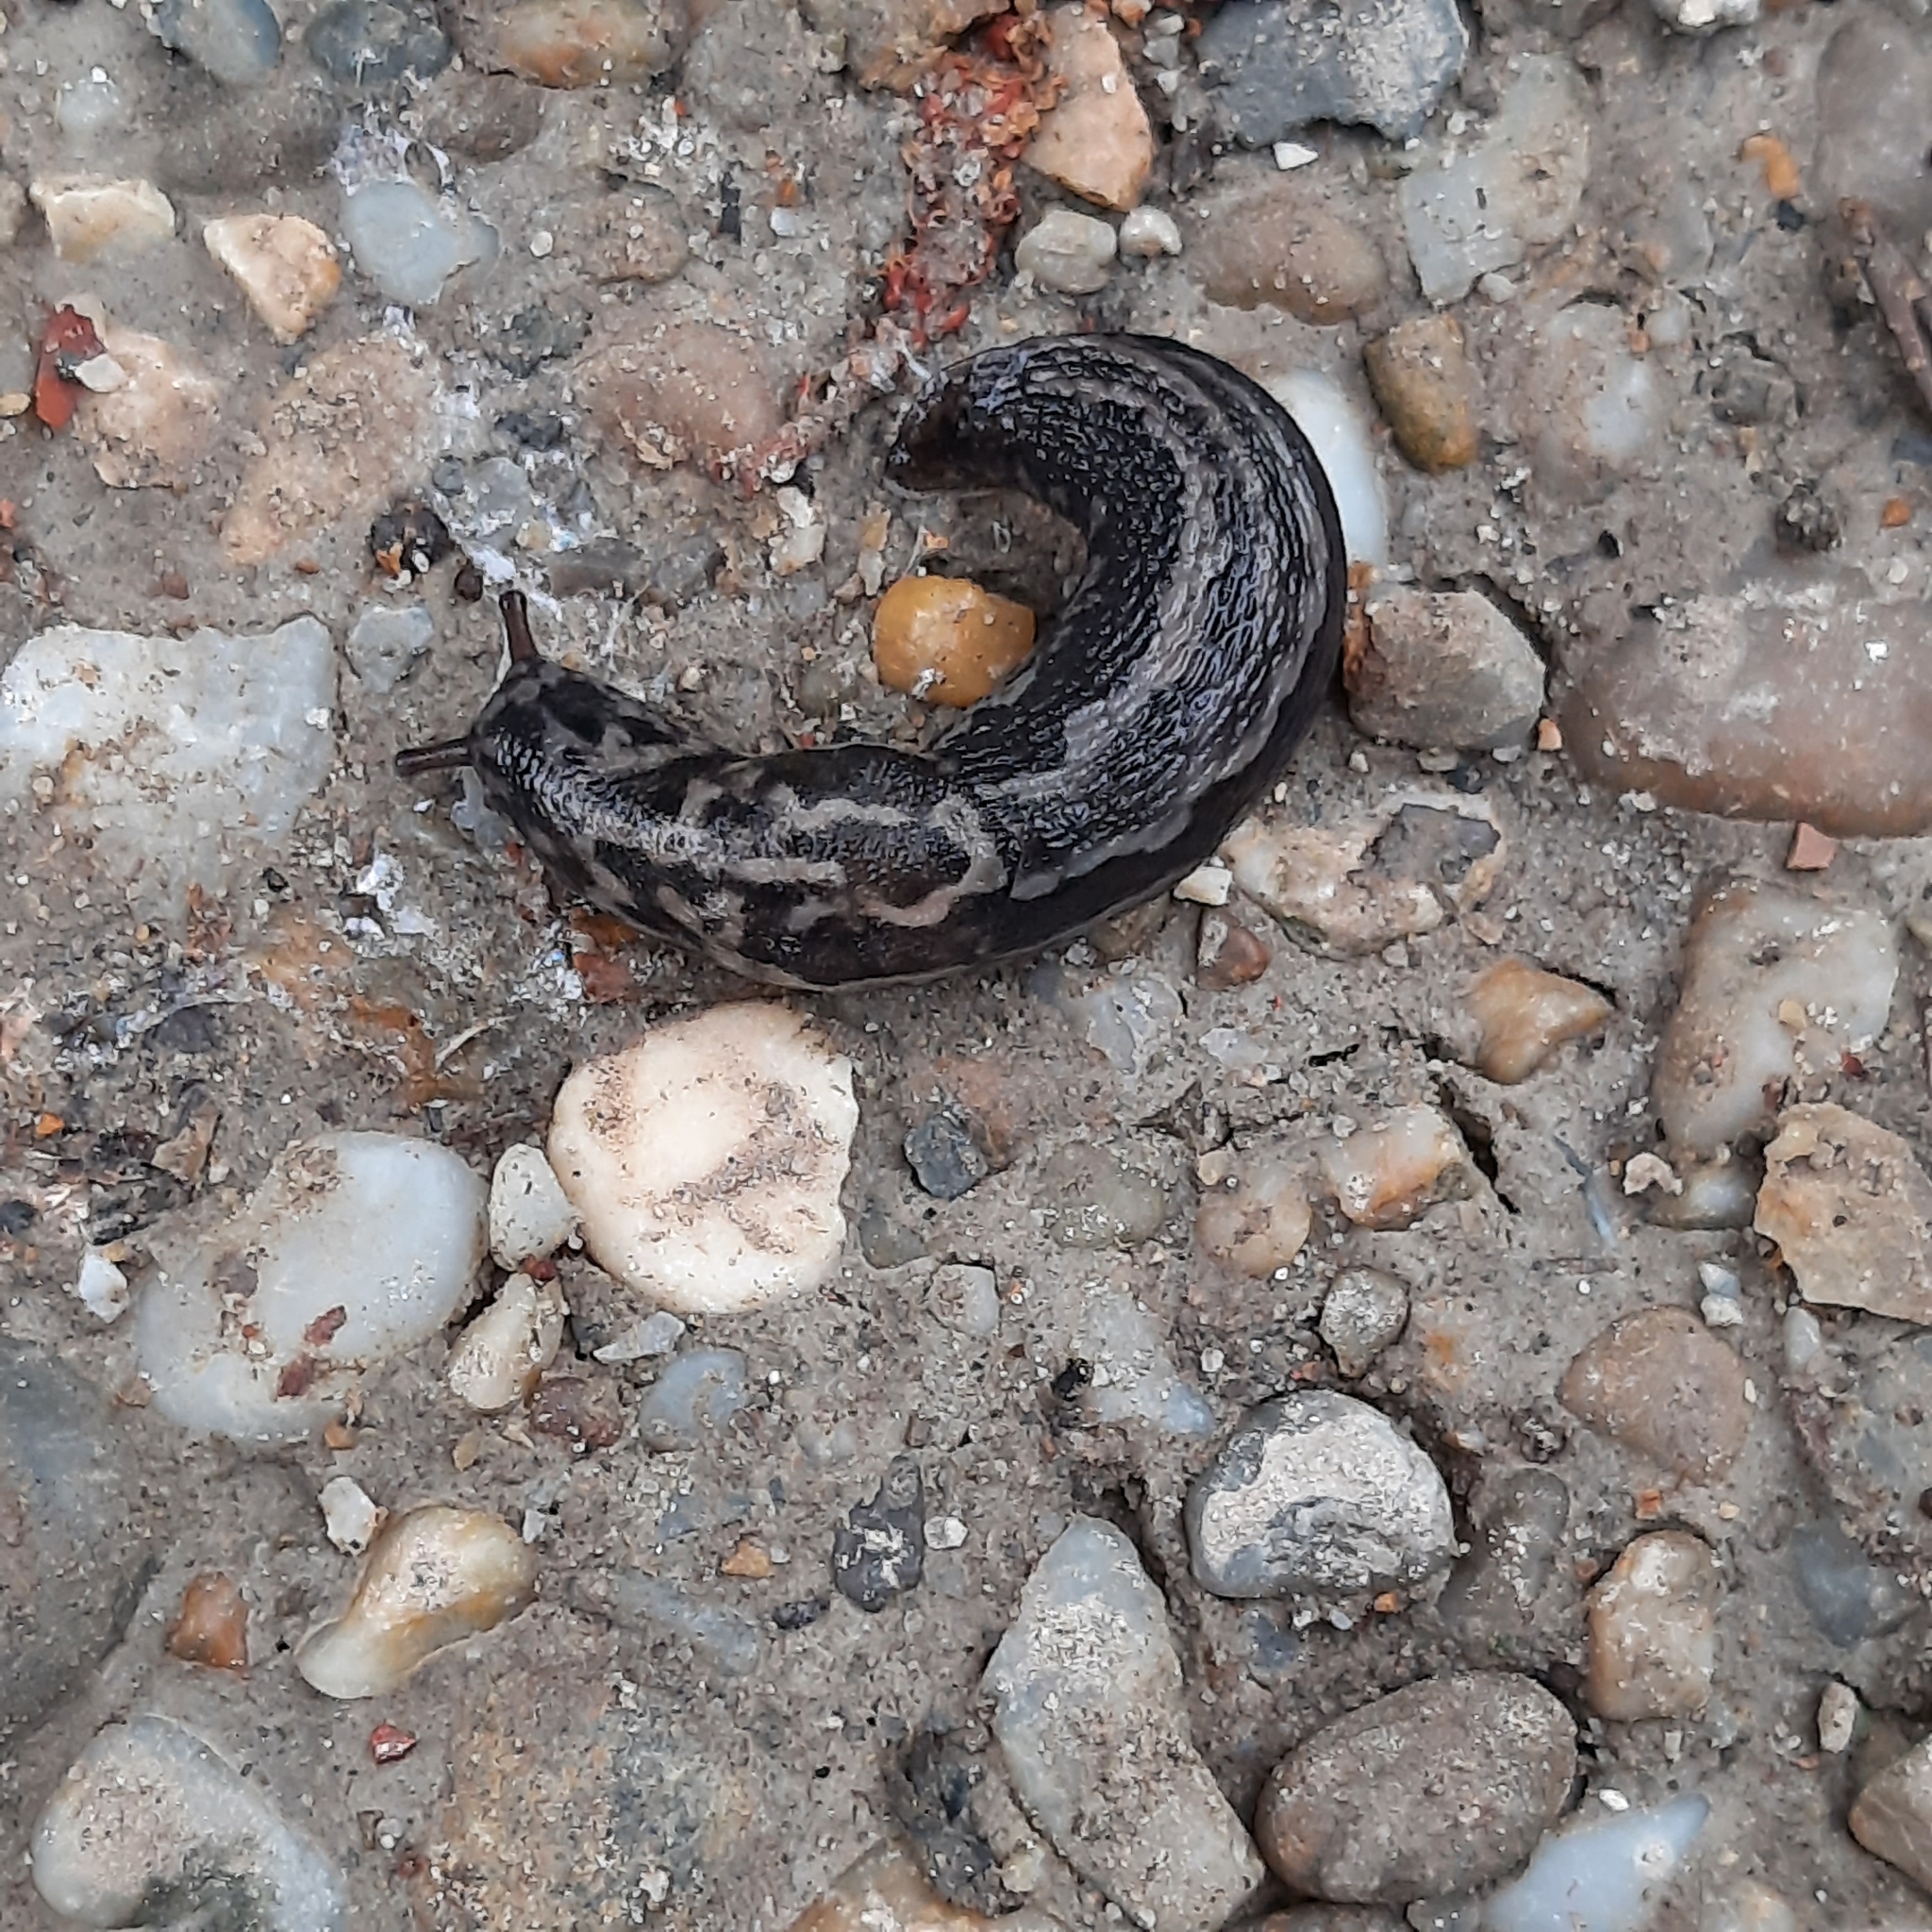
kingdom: Animalia
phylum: Mollusca
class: Gastropoda
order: Stylommatophora
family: Limacidae
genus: Limax
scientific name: Limax maximus
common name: Great grey slug
